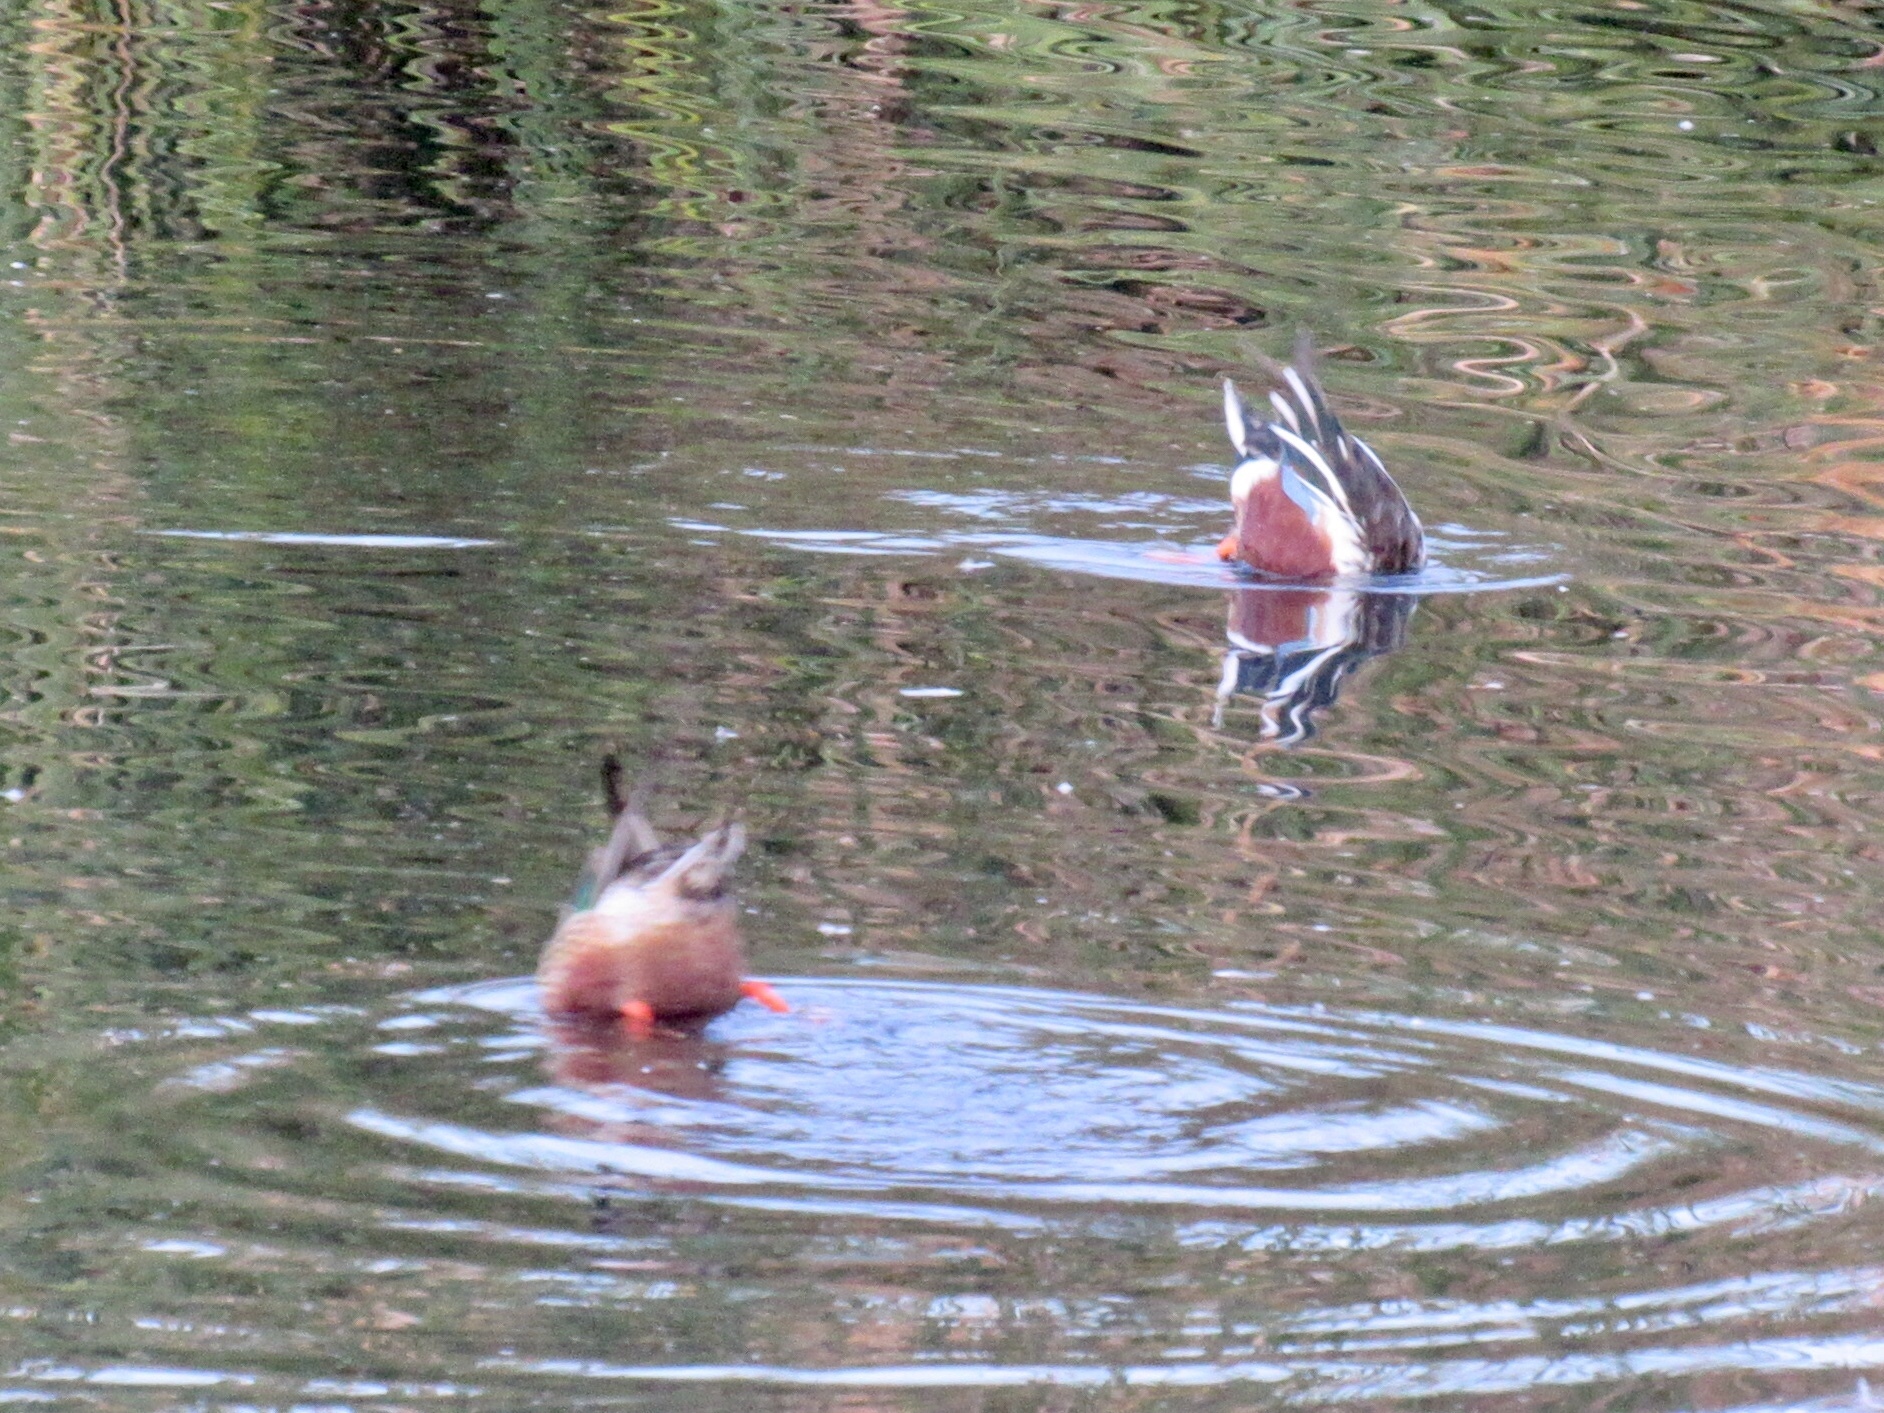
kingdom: Animalia
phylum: Chordata
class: Aves
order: Anseriformes
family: Anatidae
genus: Spatula
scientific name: Spatula clypeata
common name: Northern shoveler
